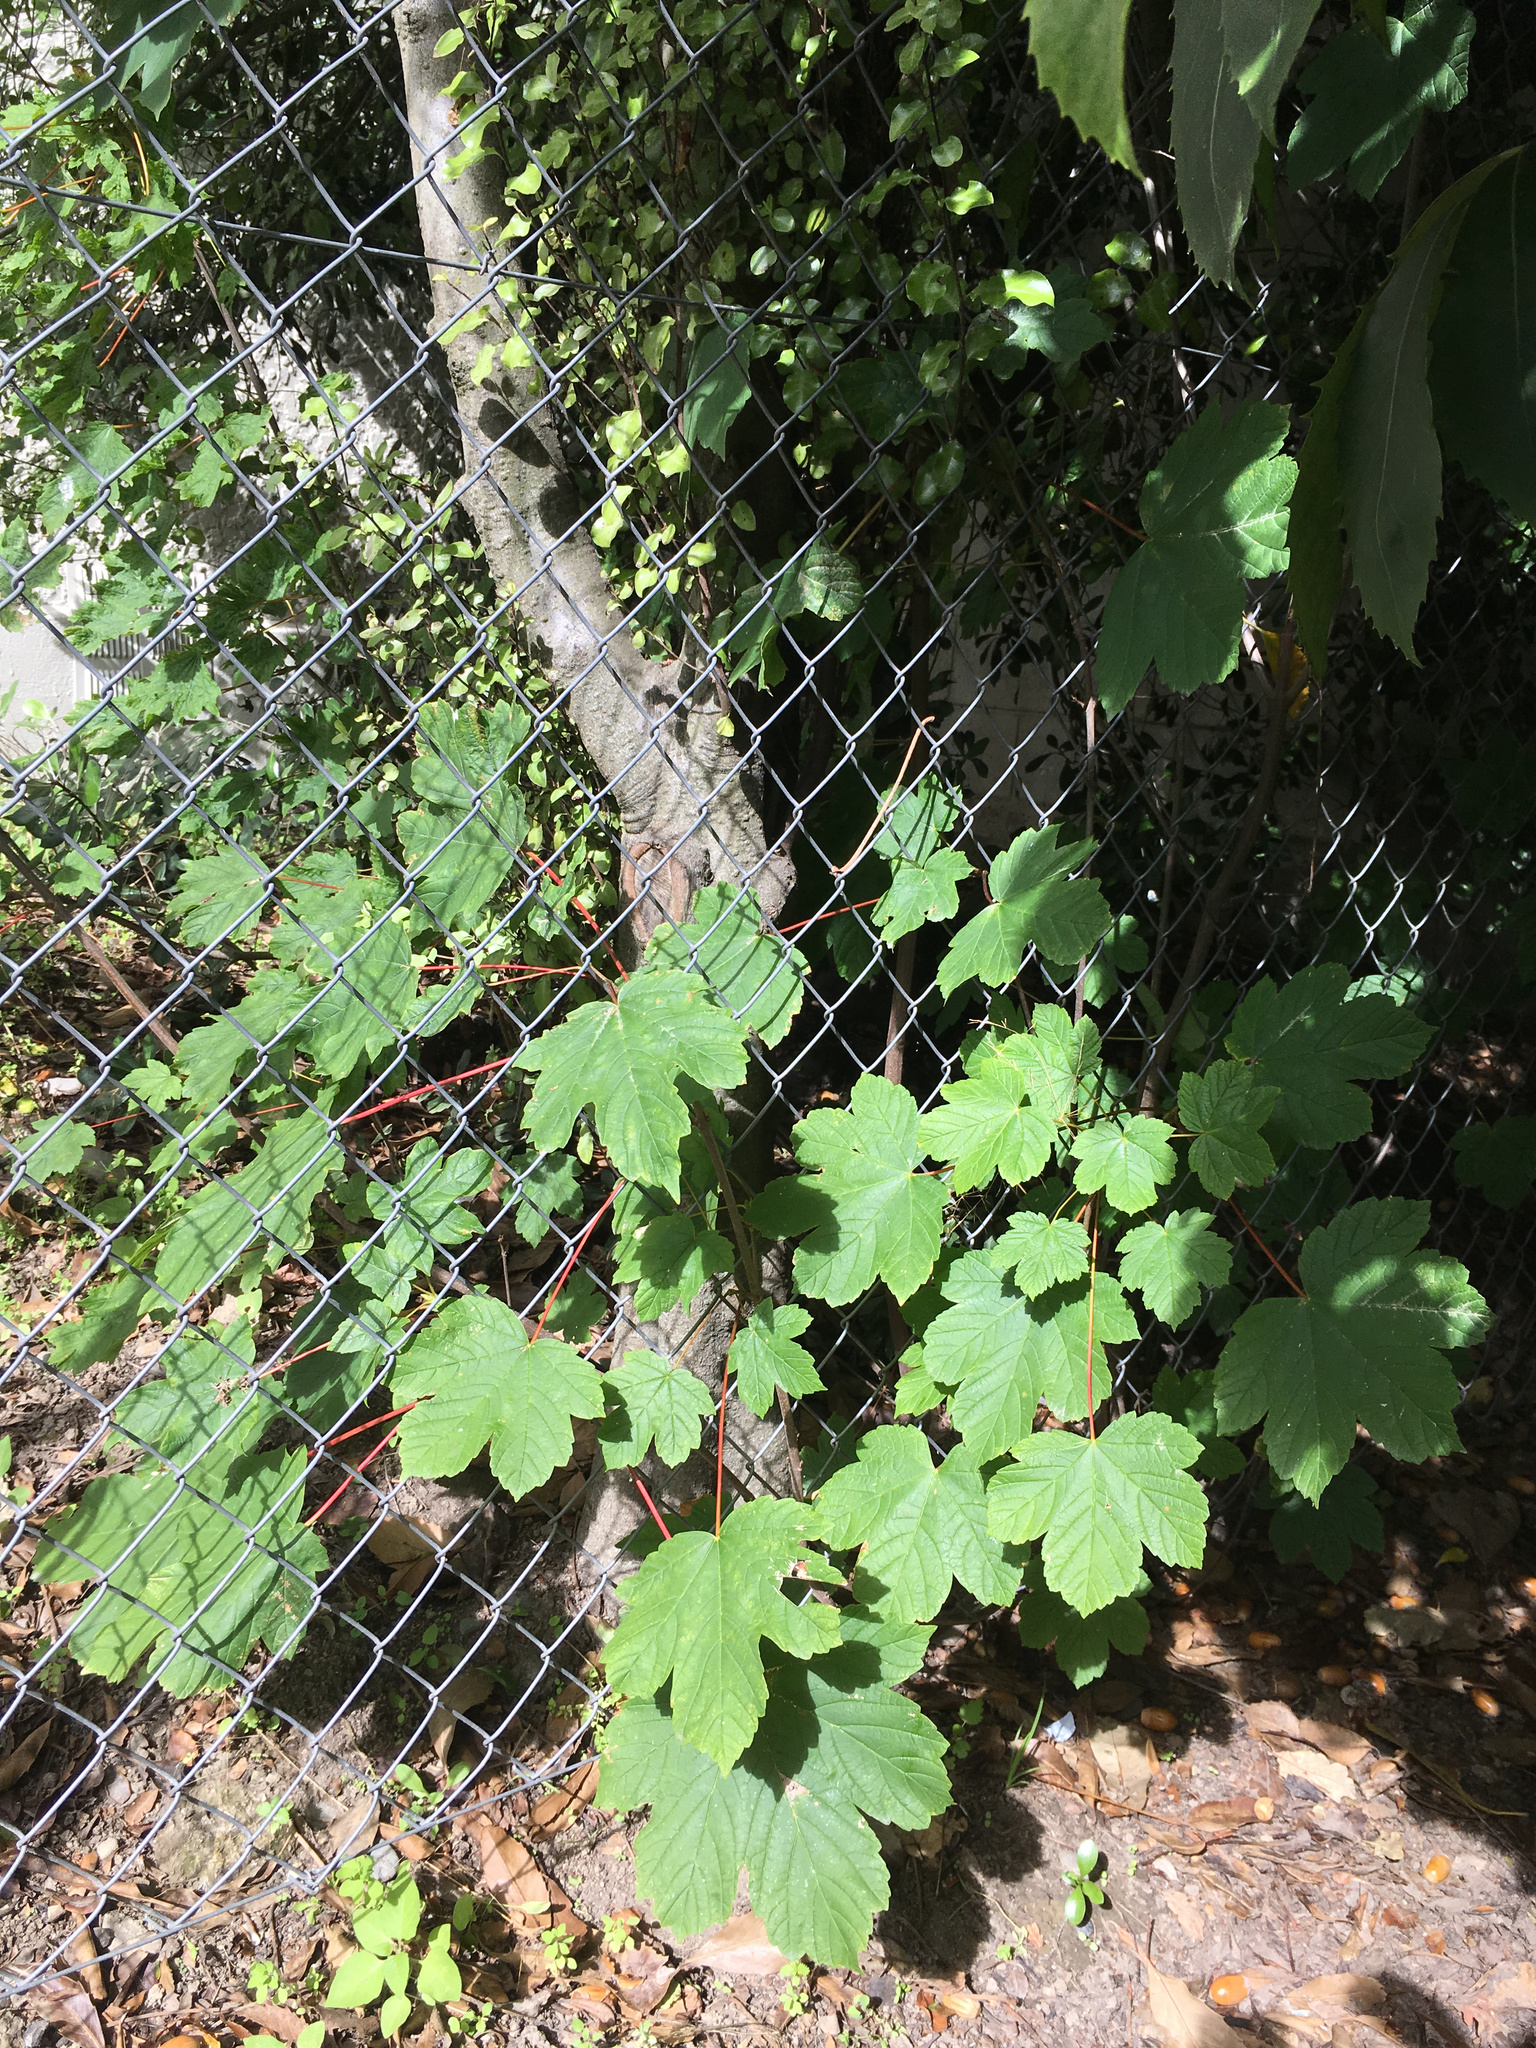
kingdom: Plantae
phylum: Tracheophyta
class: Magnoliopsida
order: Sapindales
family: Sapindaceae
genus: Acer
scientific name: Acer pseudoplatanus
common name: Sycamore
